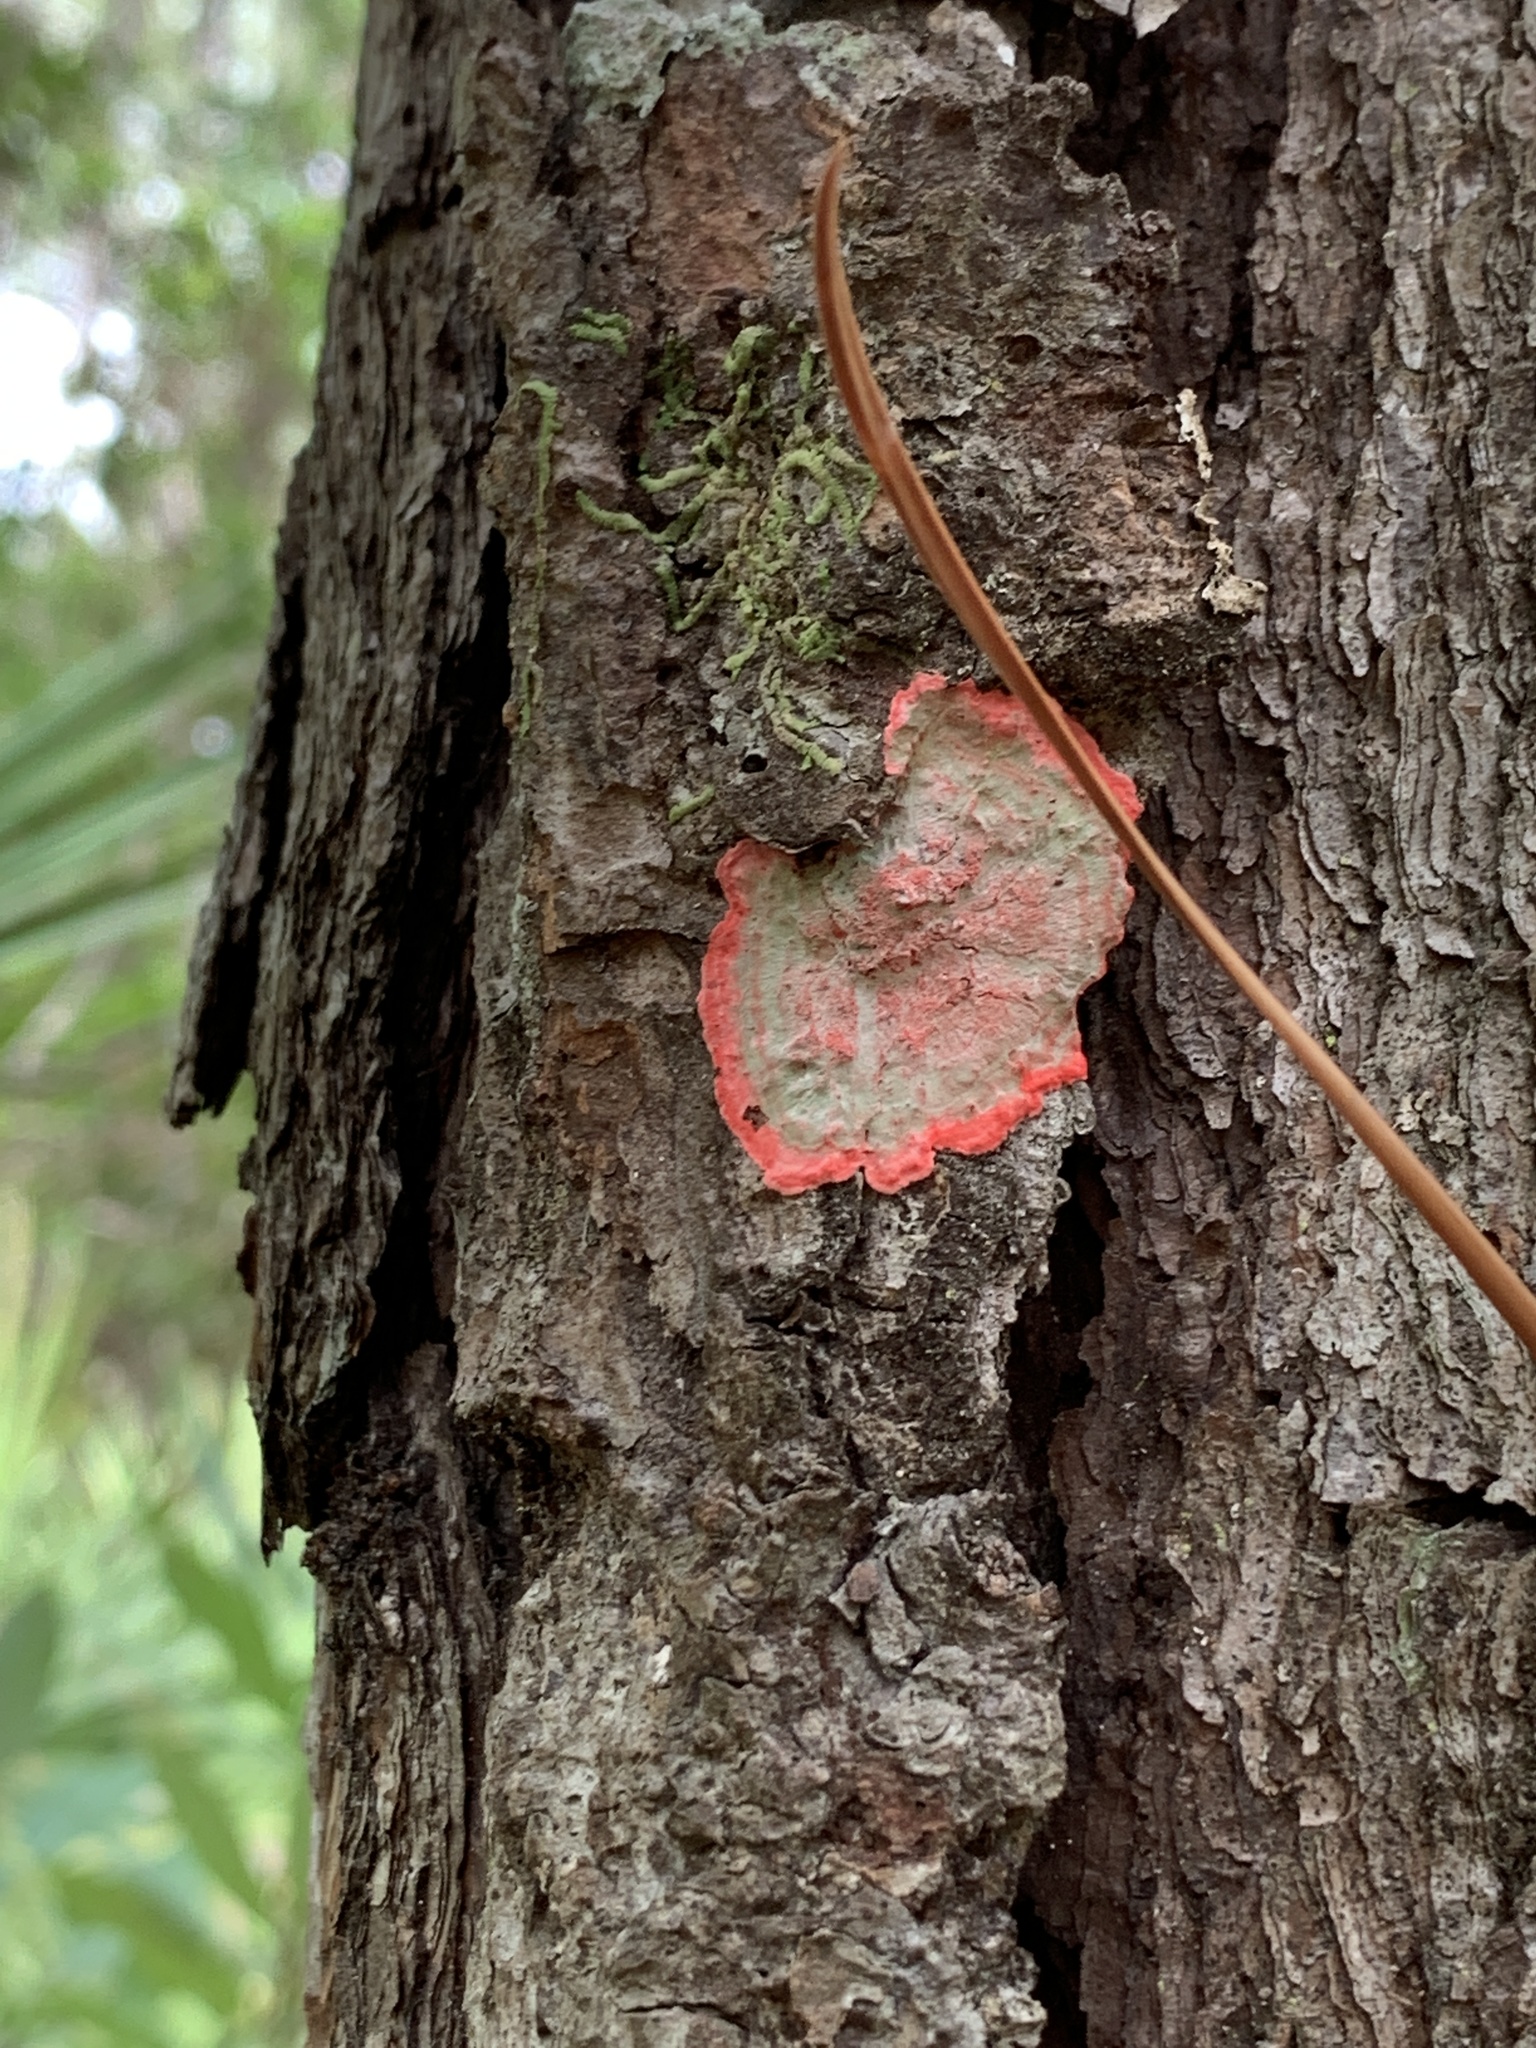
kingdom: Fungi
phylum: Ascomycota
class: Arthoniomycetes
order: Arthoniales
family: Arthoniaceae
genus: Herpothallon
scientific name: Herpothallon rubrocinctum
